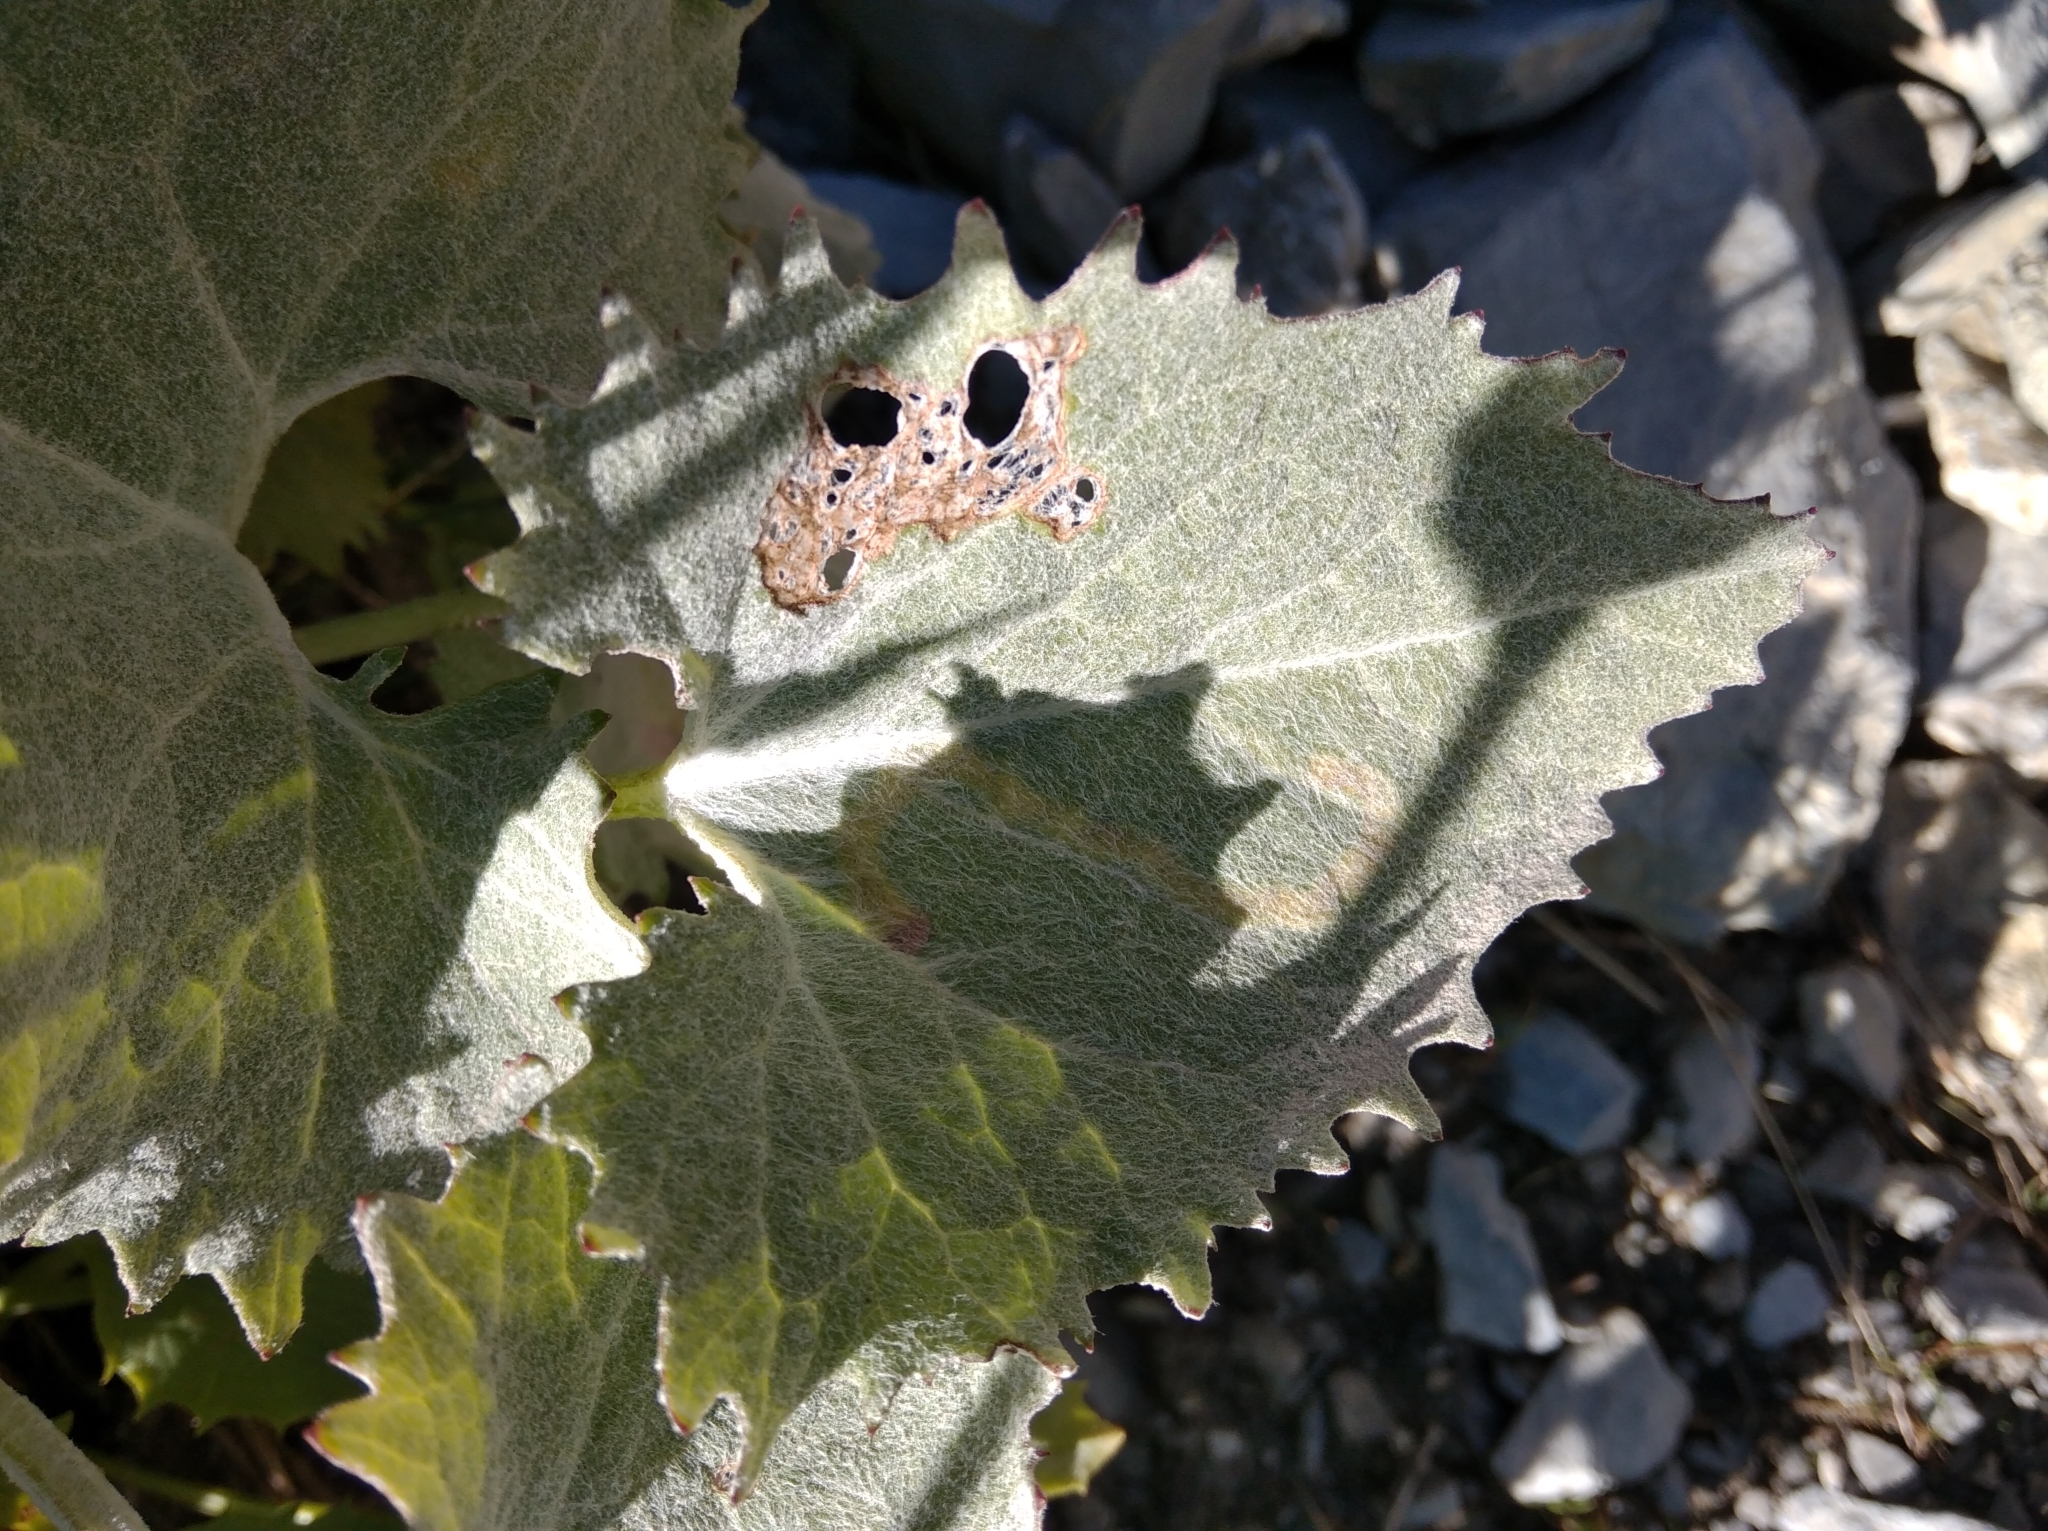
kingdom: Plantae
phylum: Tracheophyta
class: Magnoliopsida
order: Asterales
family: Asteraceae
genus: Adenostyles
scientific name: Adenostyles leucophylla
